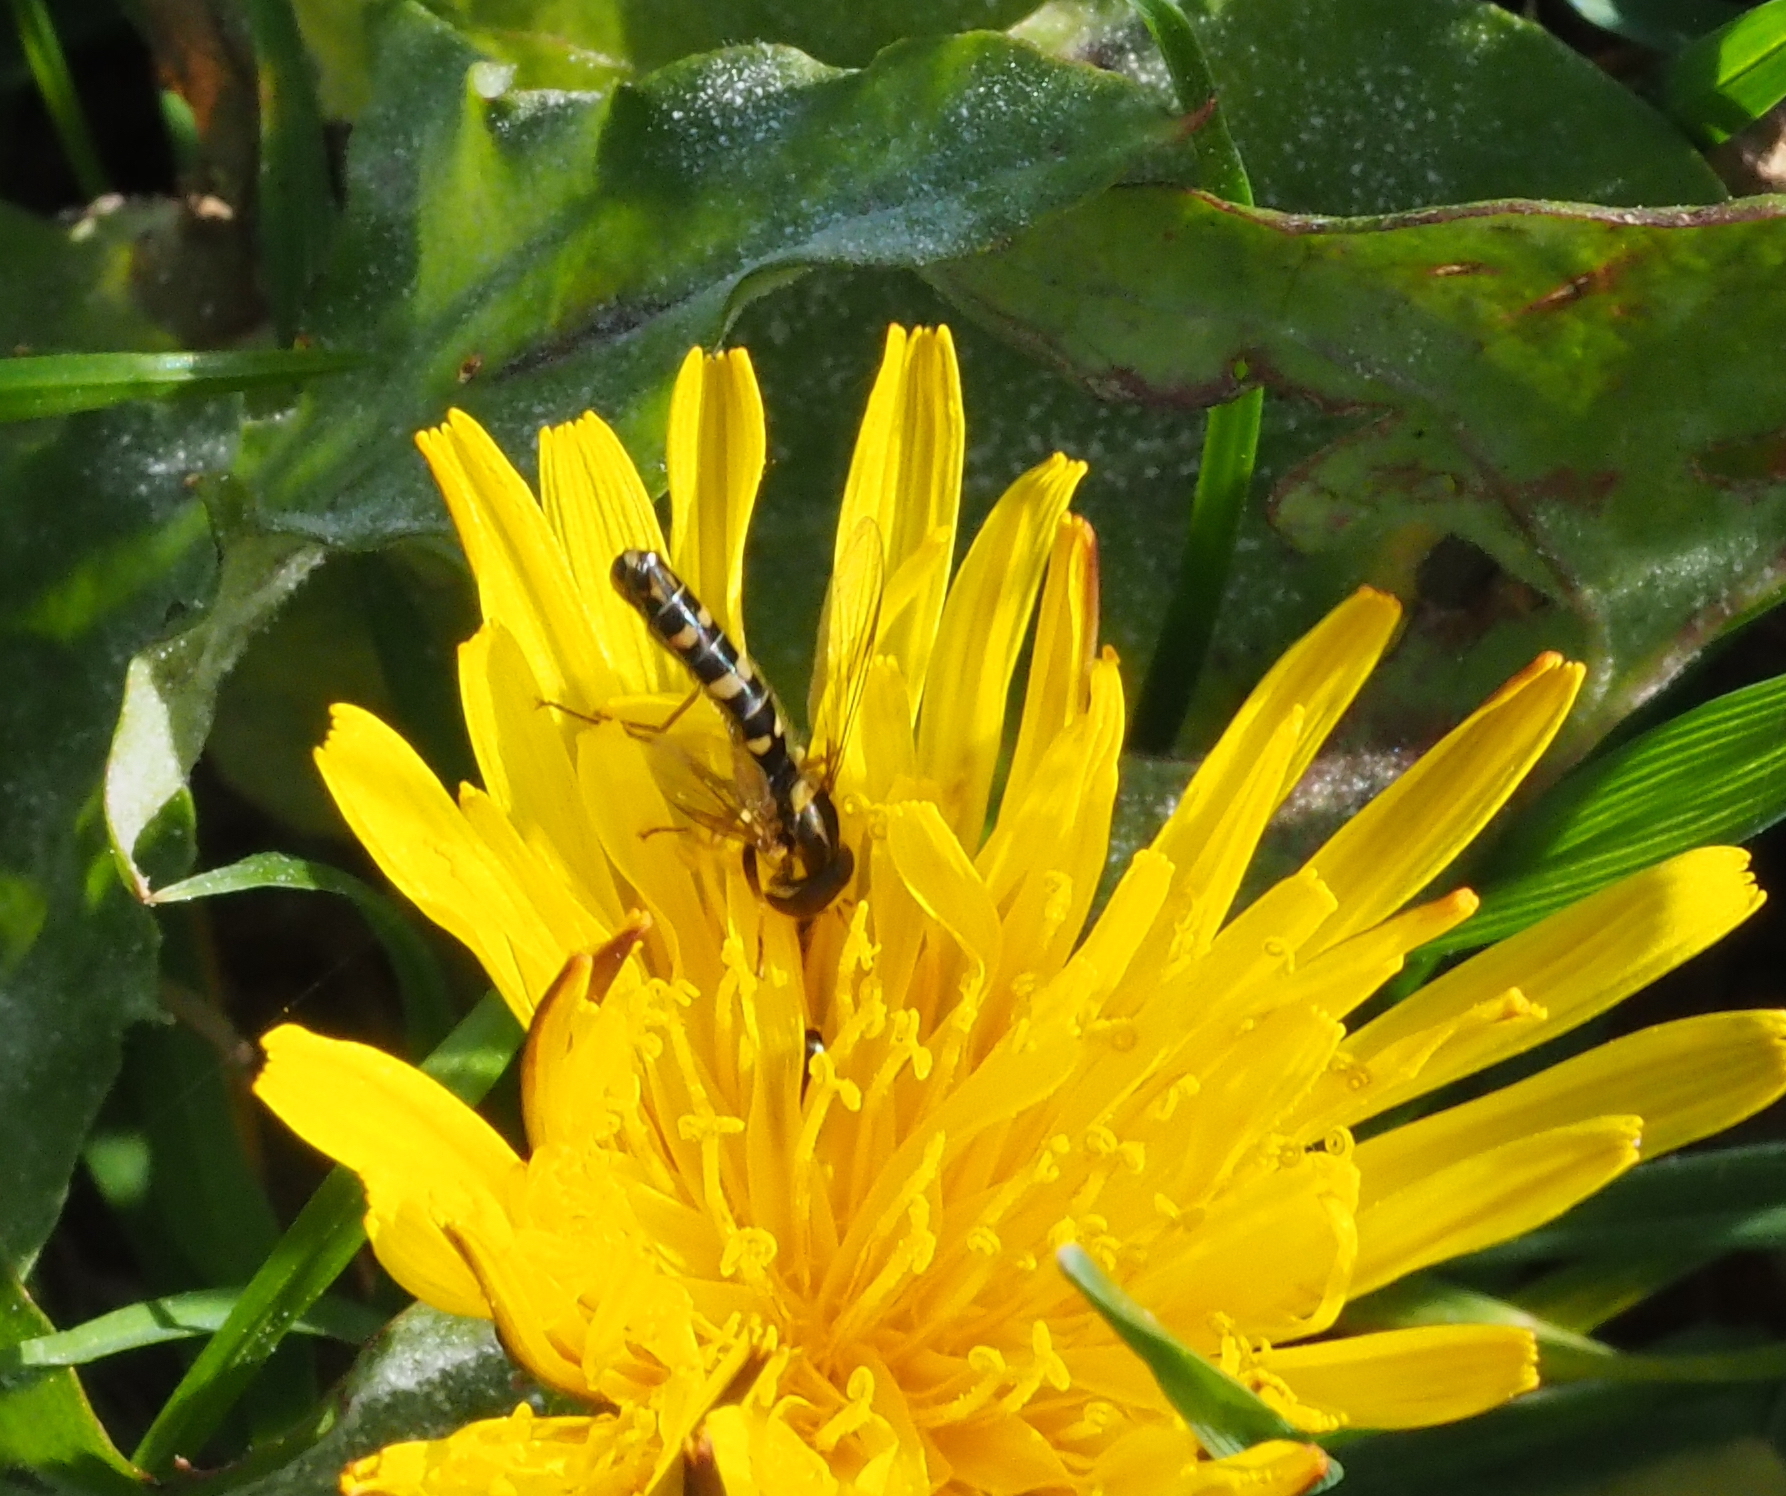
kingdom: Animalia
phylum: Arthropoda
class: Insecta
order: Diptera
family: Syrphidae
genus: Sphaerophoria
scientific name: Sphaerophoria scripta
